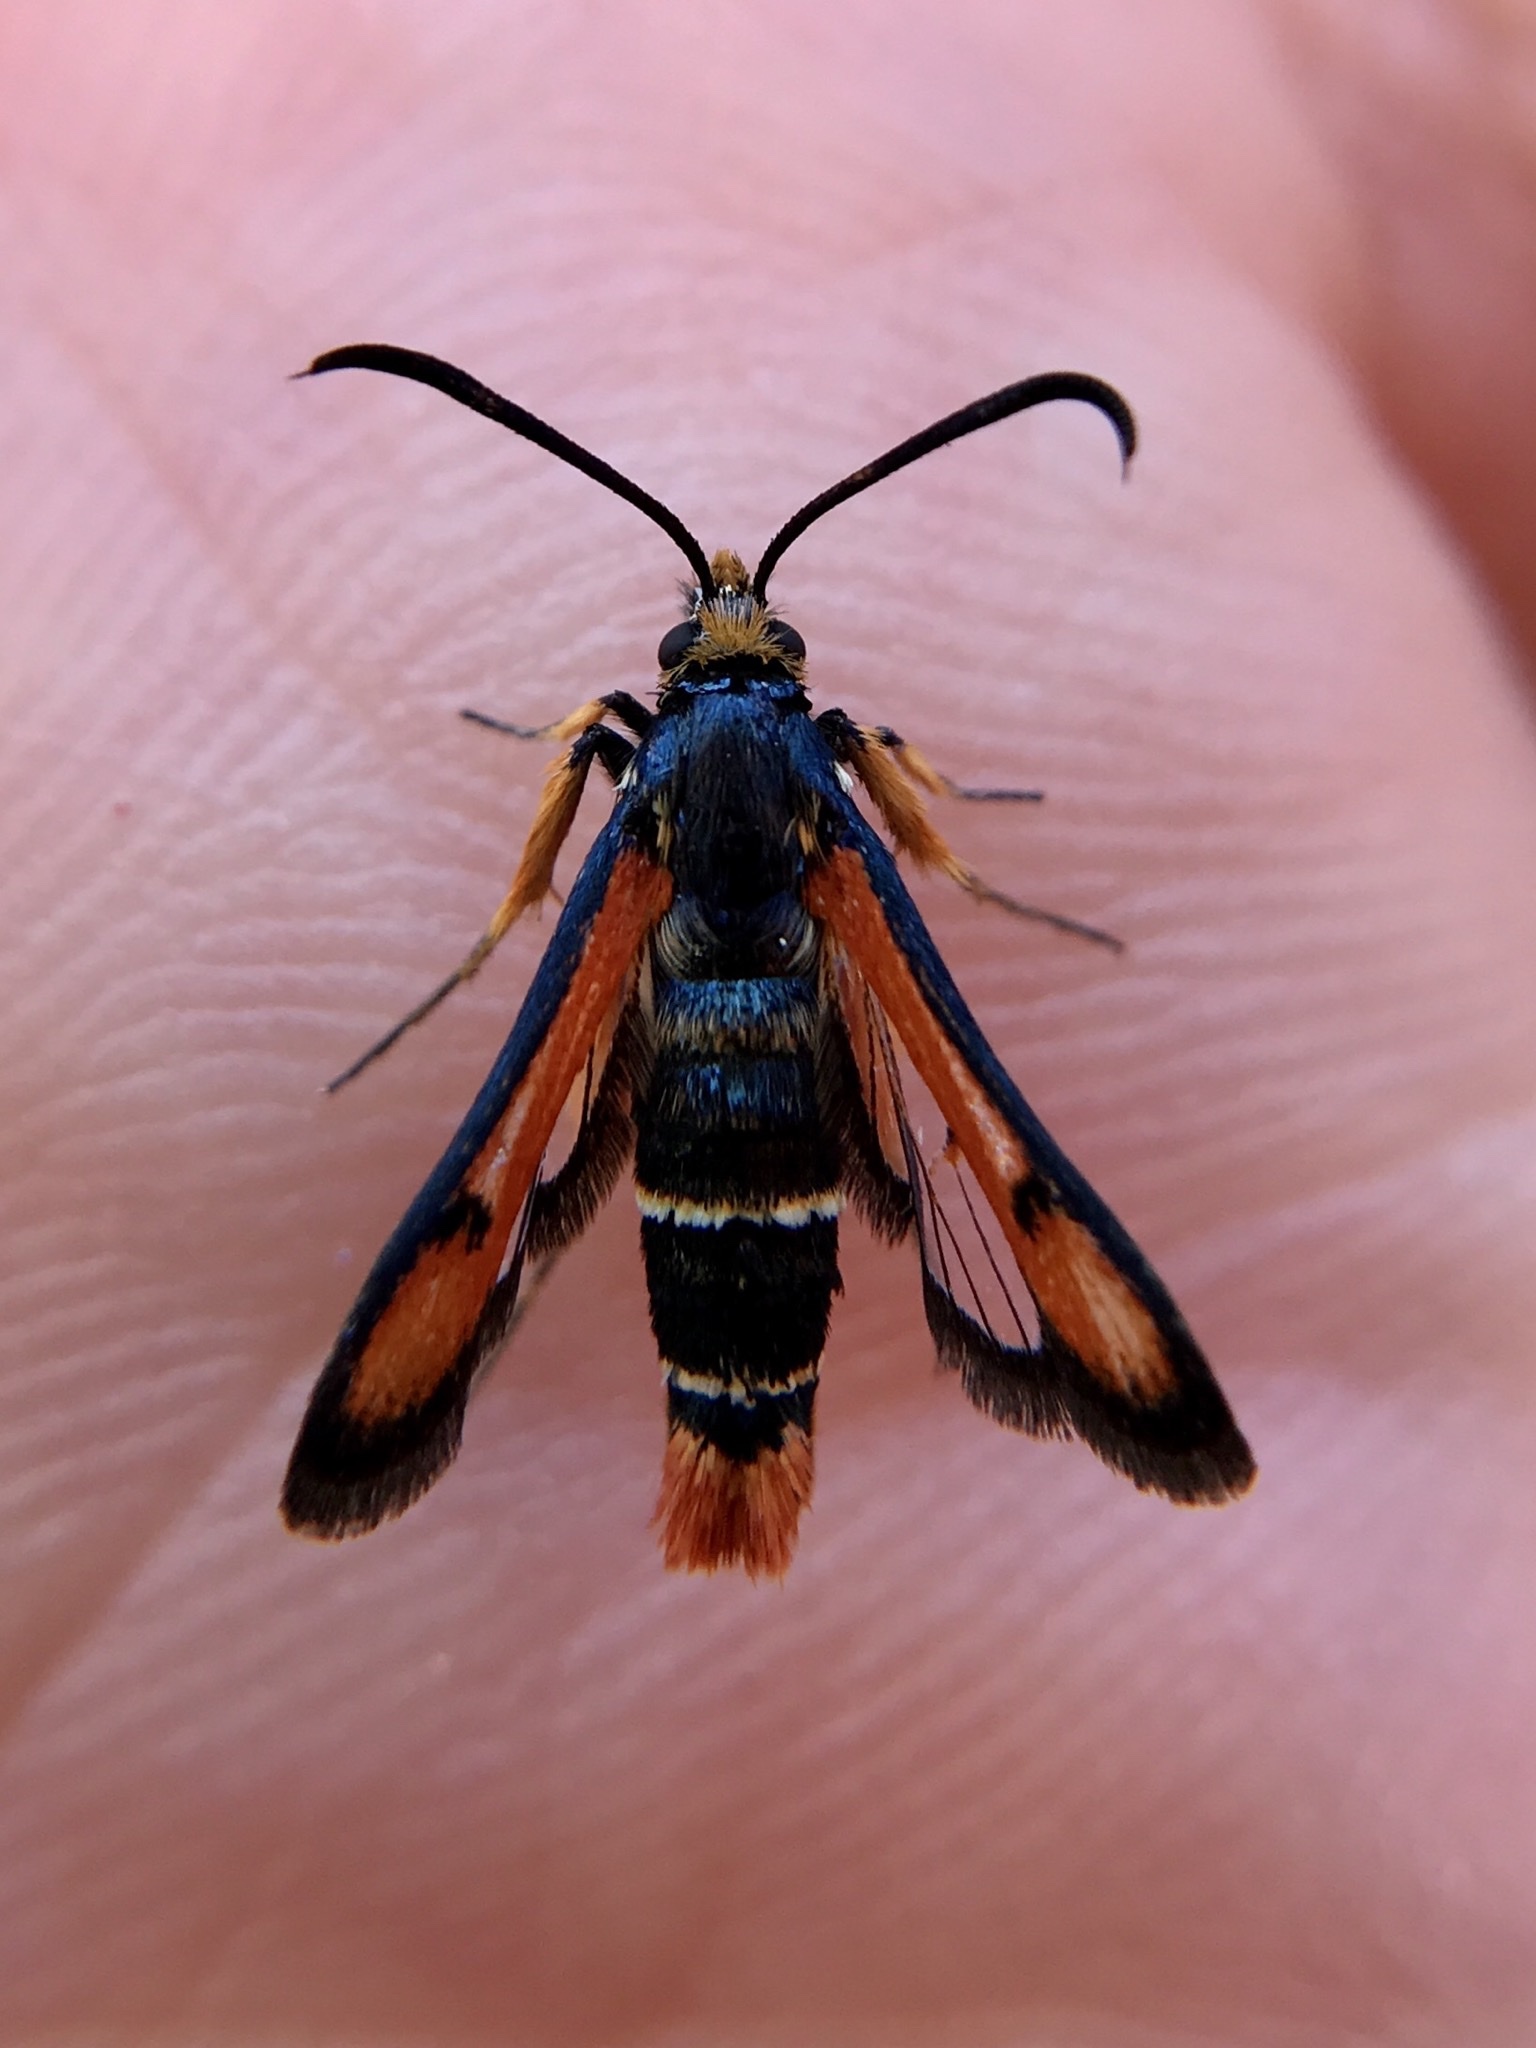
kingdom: Animalia
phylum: Arthropoda
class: Insecta
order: Lepidoptera
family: Sesiidae
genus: Pyropteron
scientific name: Pyropteron chrysidiforme
